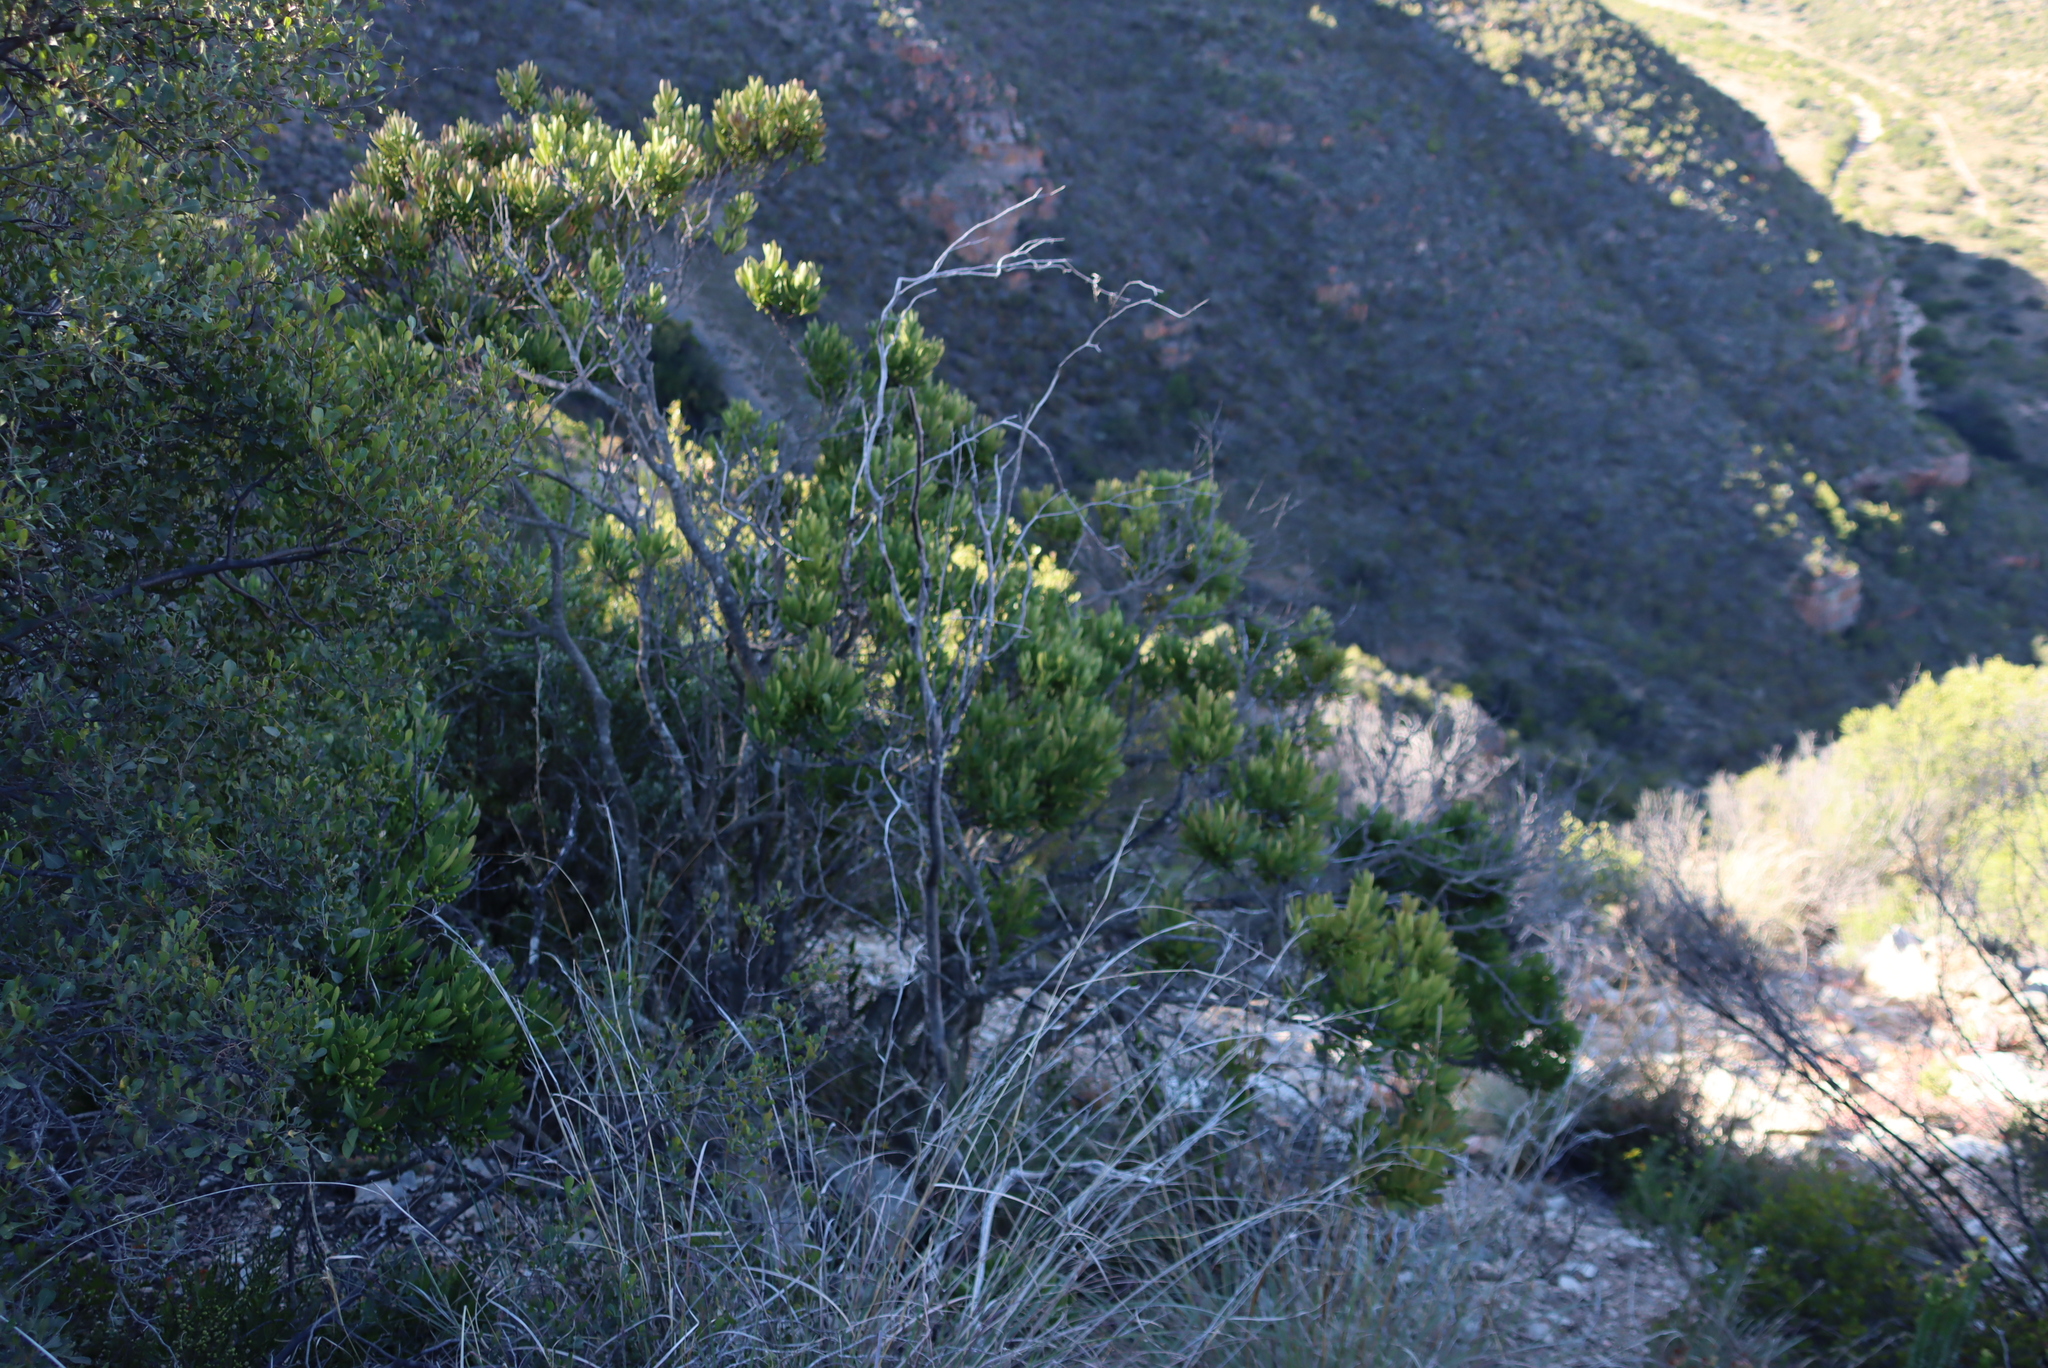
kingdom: Plantae
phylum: Tracheophyta
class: Magnoliopsida
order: Ericales
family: Ebenaceae
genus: Euclea
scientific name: Euclea racemosa
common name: Dune guarri
